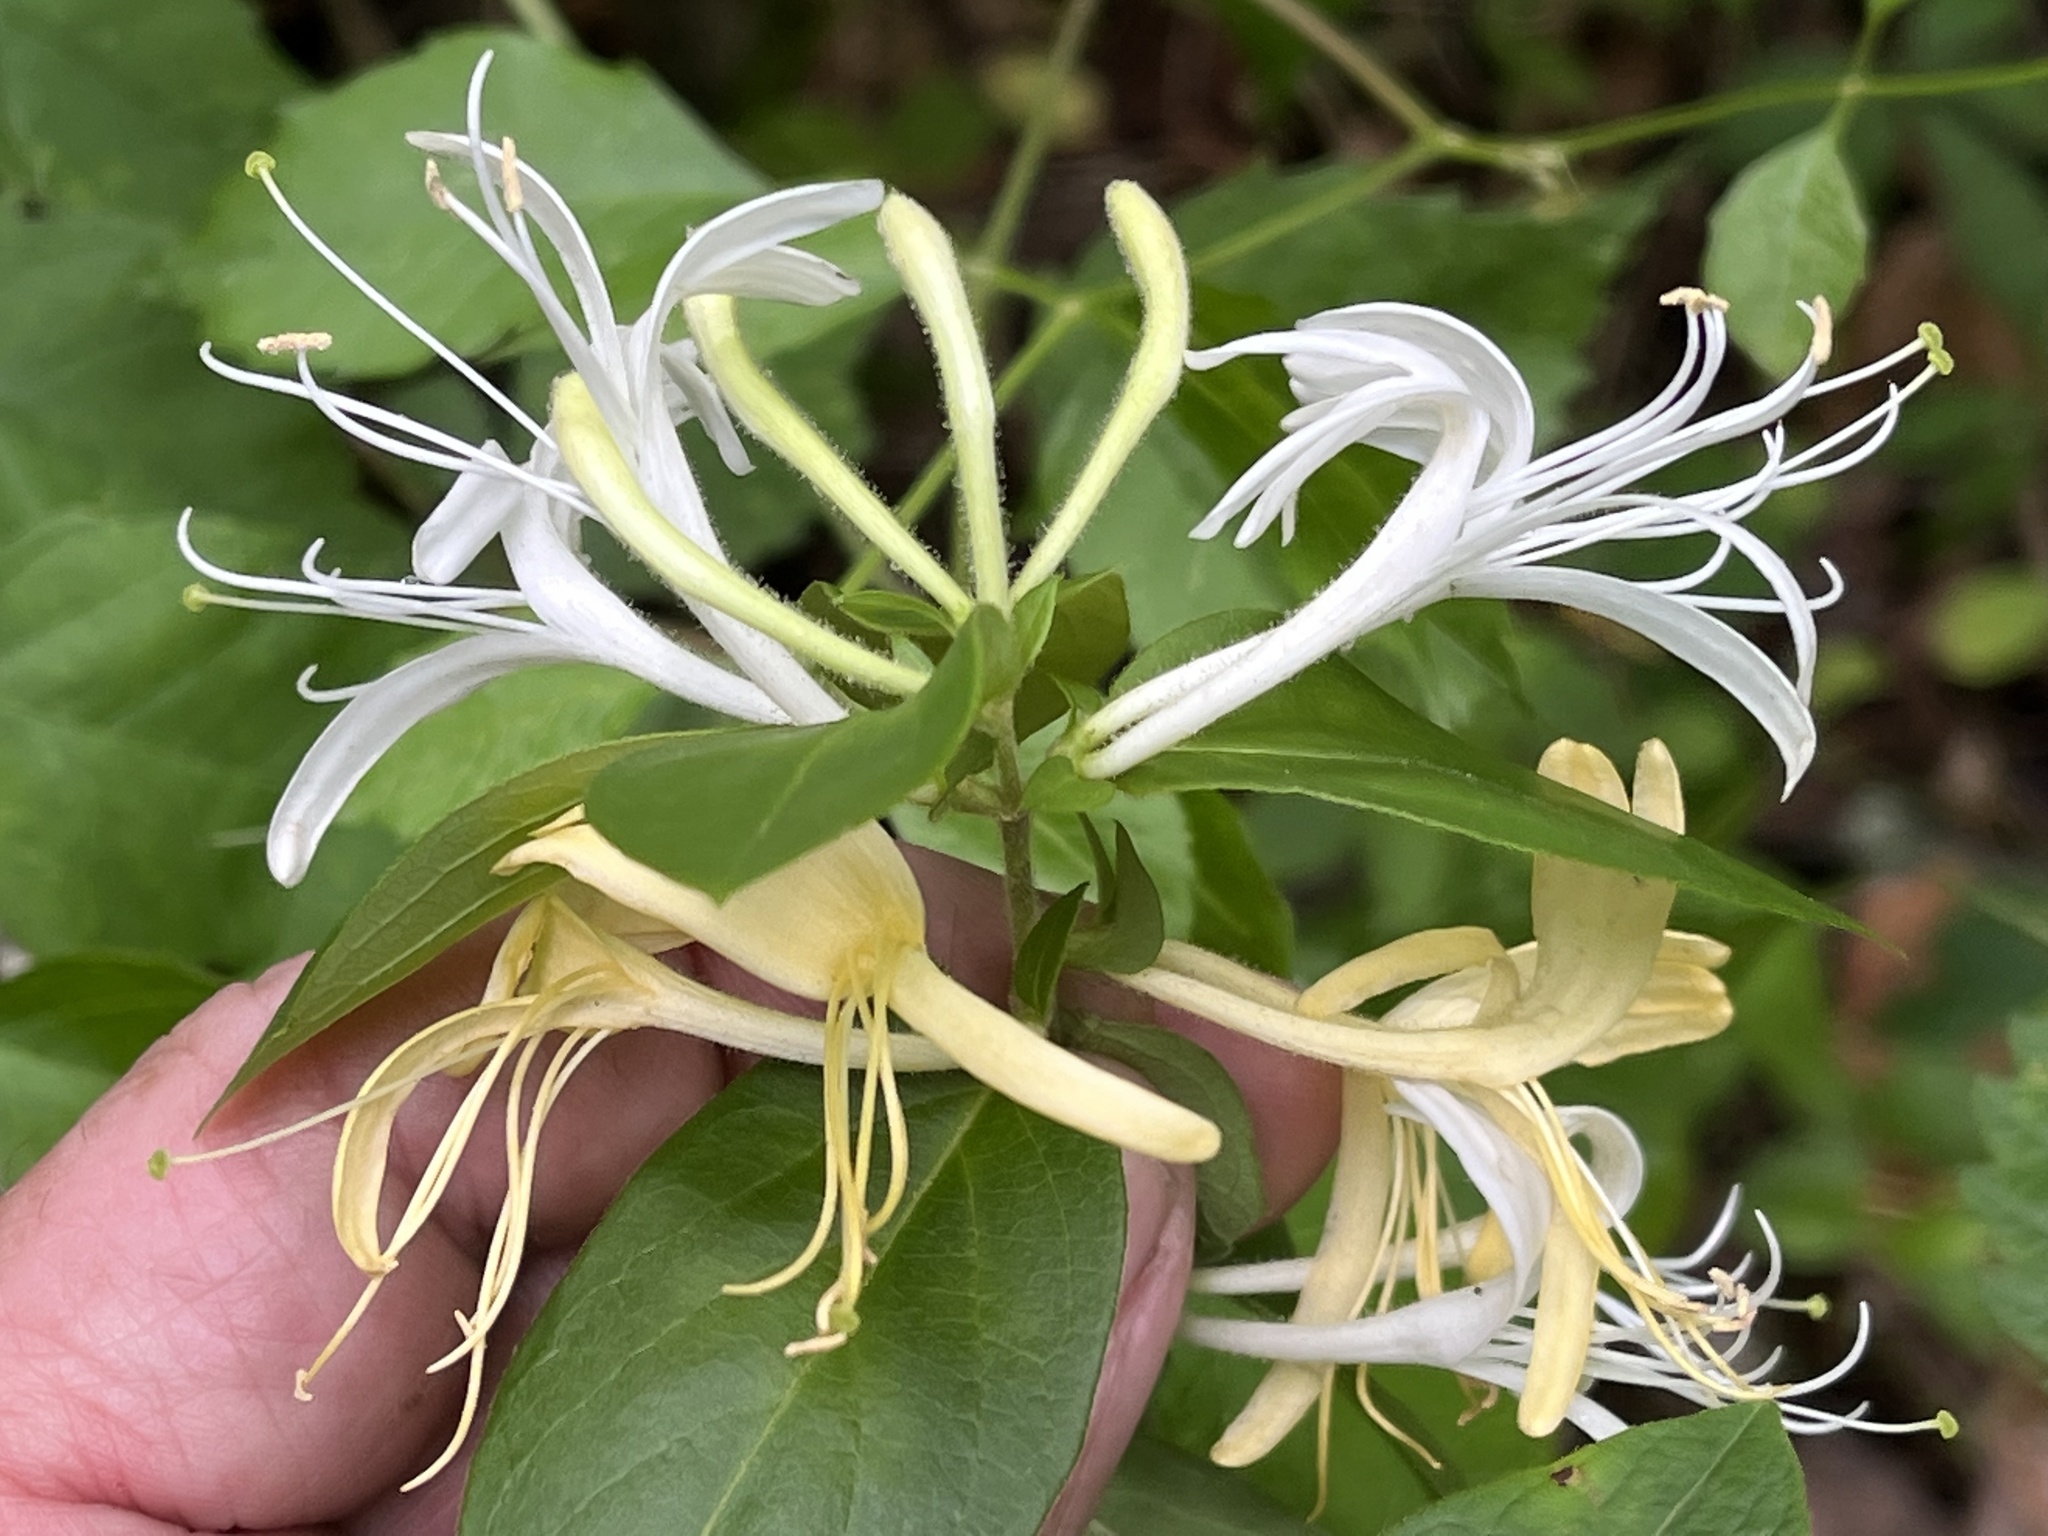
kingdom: Plantae
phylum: Tracheophyta
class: Magnoliopsida
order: Dipsacales
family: Caprifoliaceae
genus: Lonicera
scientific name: Lonicera japonica
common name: Japanese honeysuckle
